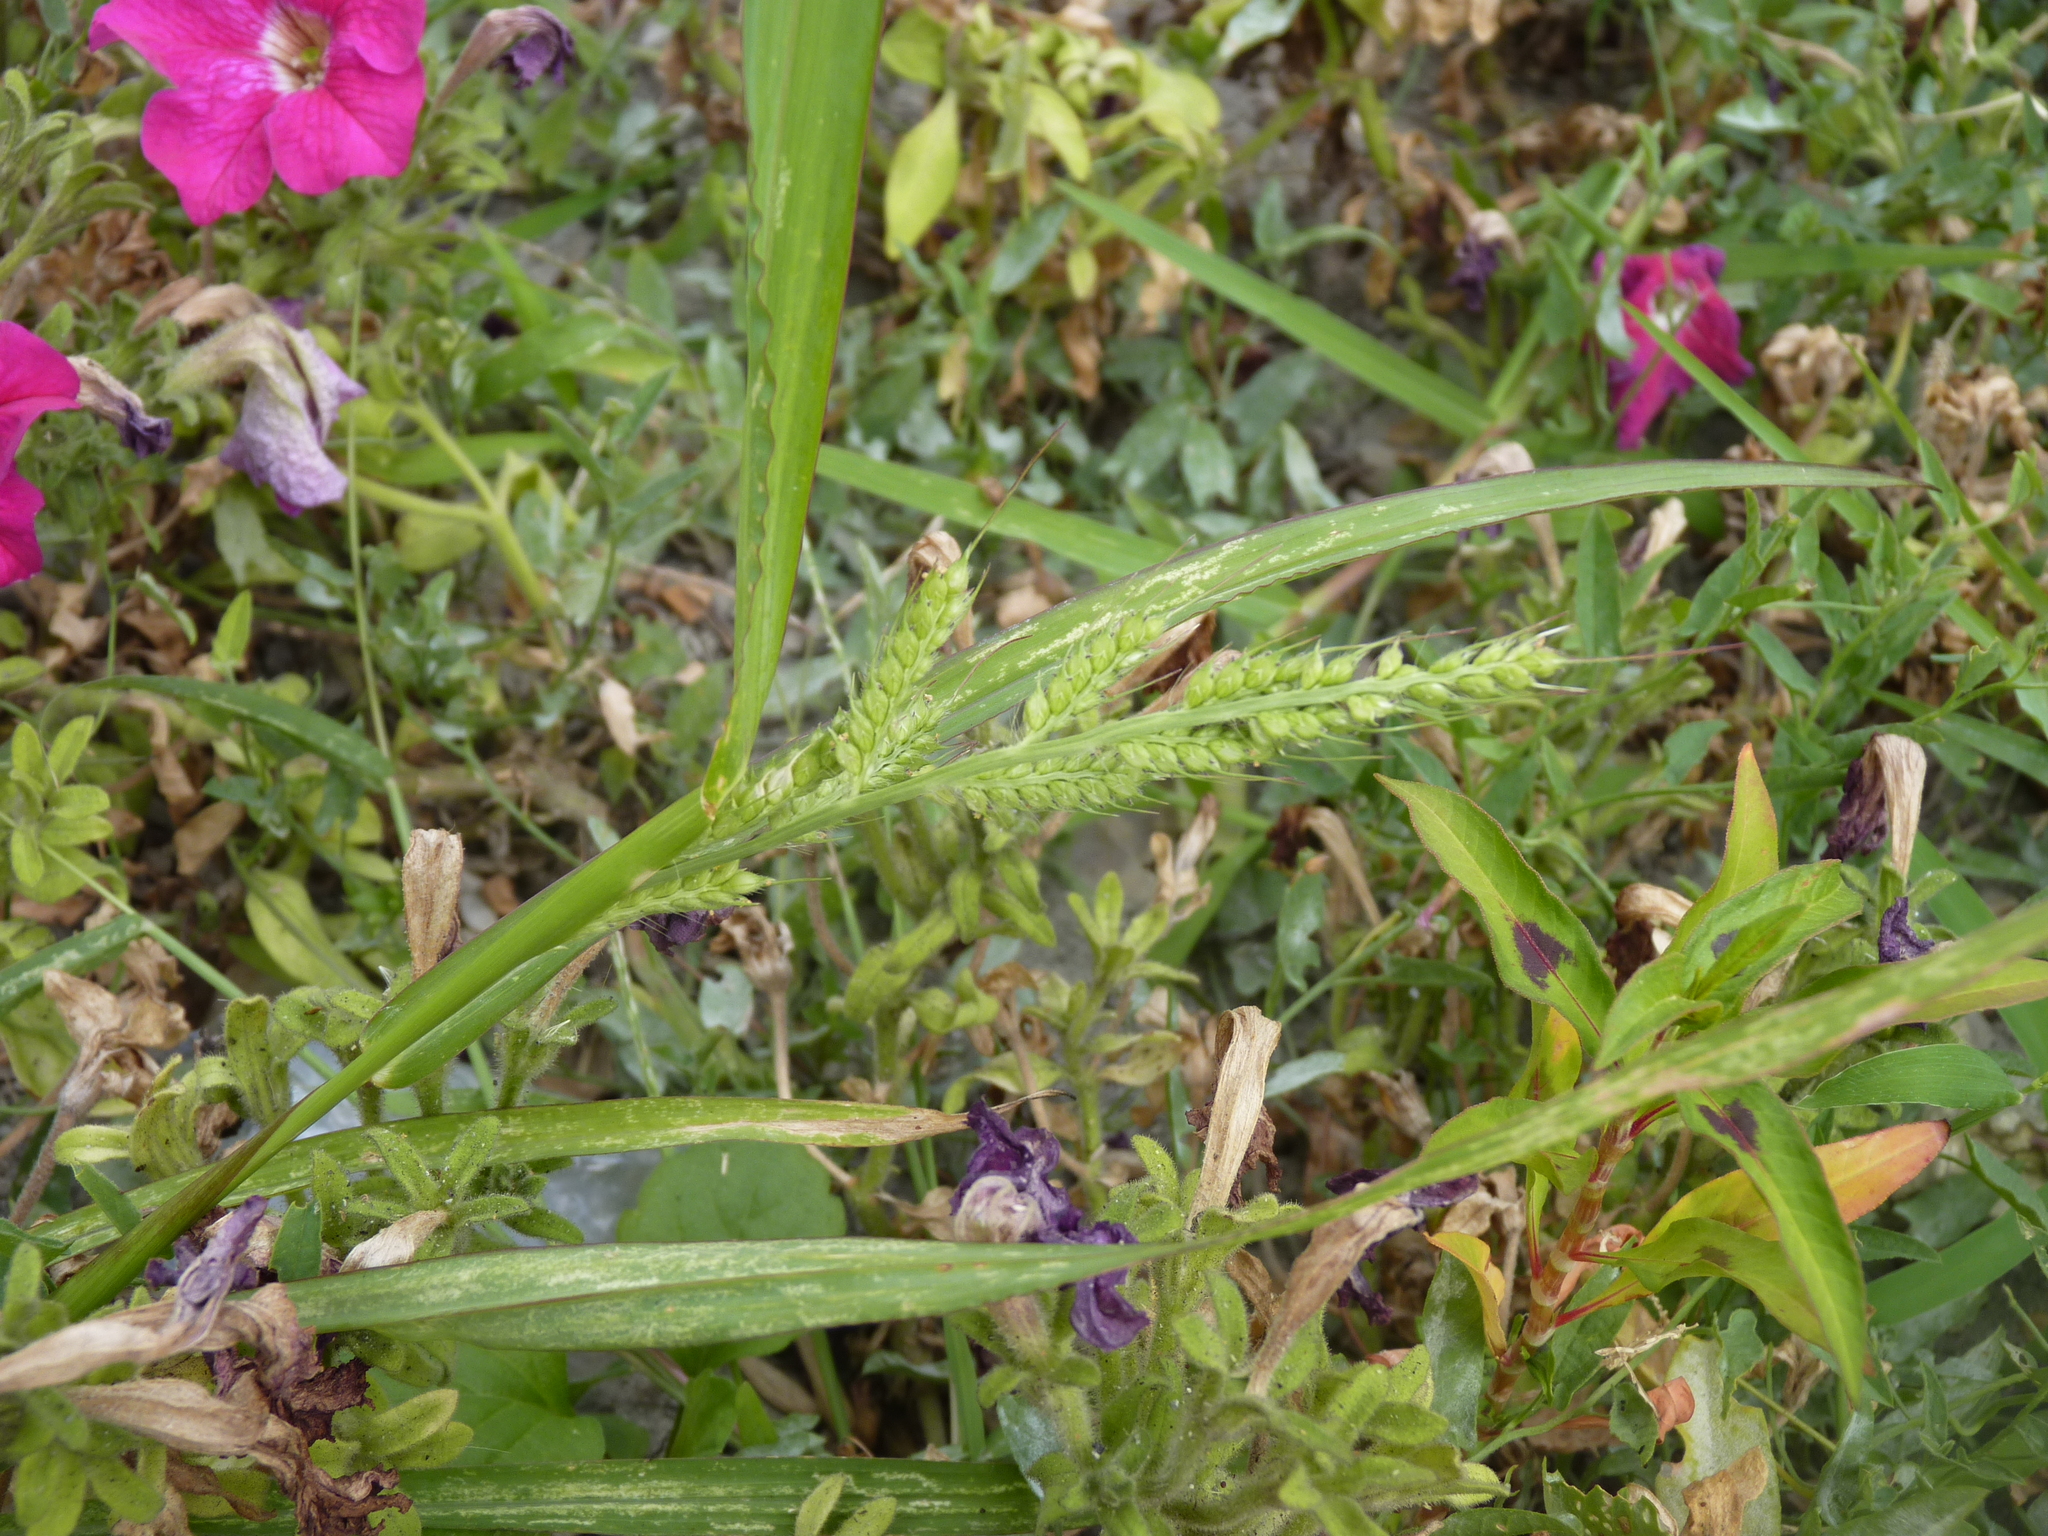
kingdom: Plantae
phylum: Tracheophyta
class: Liliopsida
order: Poales
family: Poaceae
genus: Echinochloa
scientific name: Echinochloa crus-galli
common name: Cockspur
